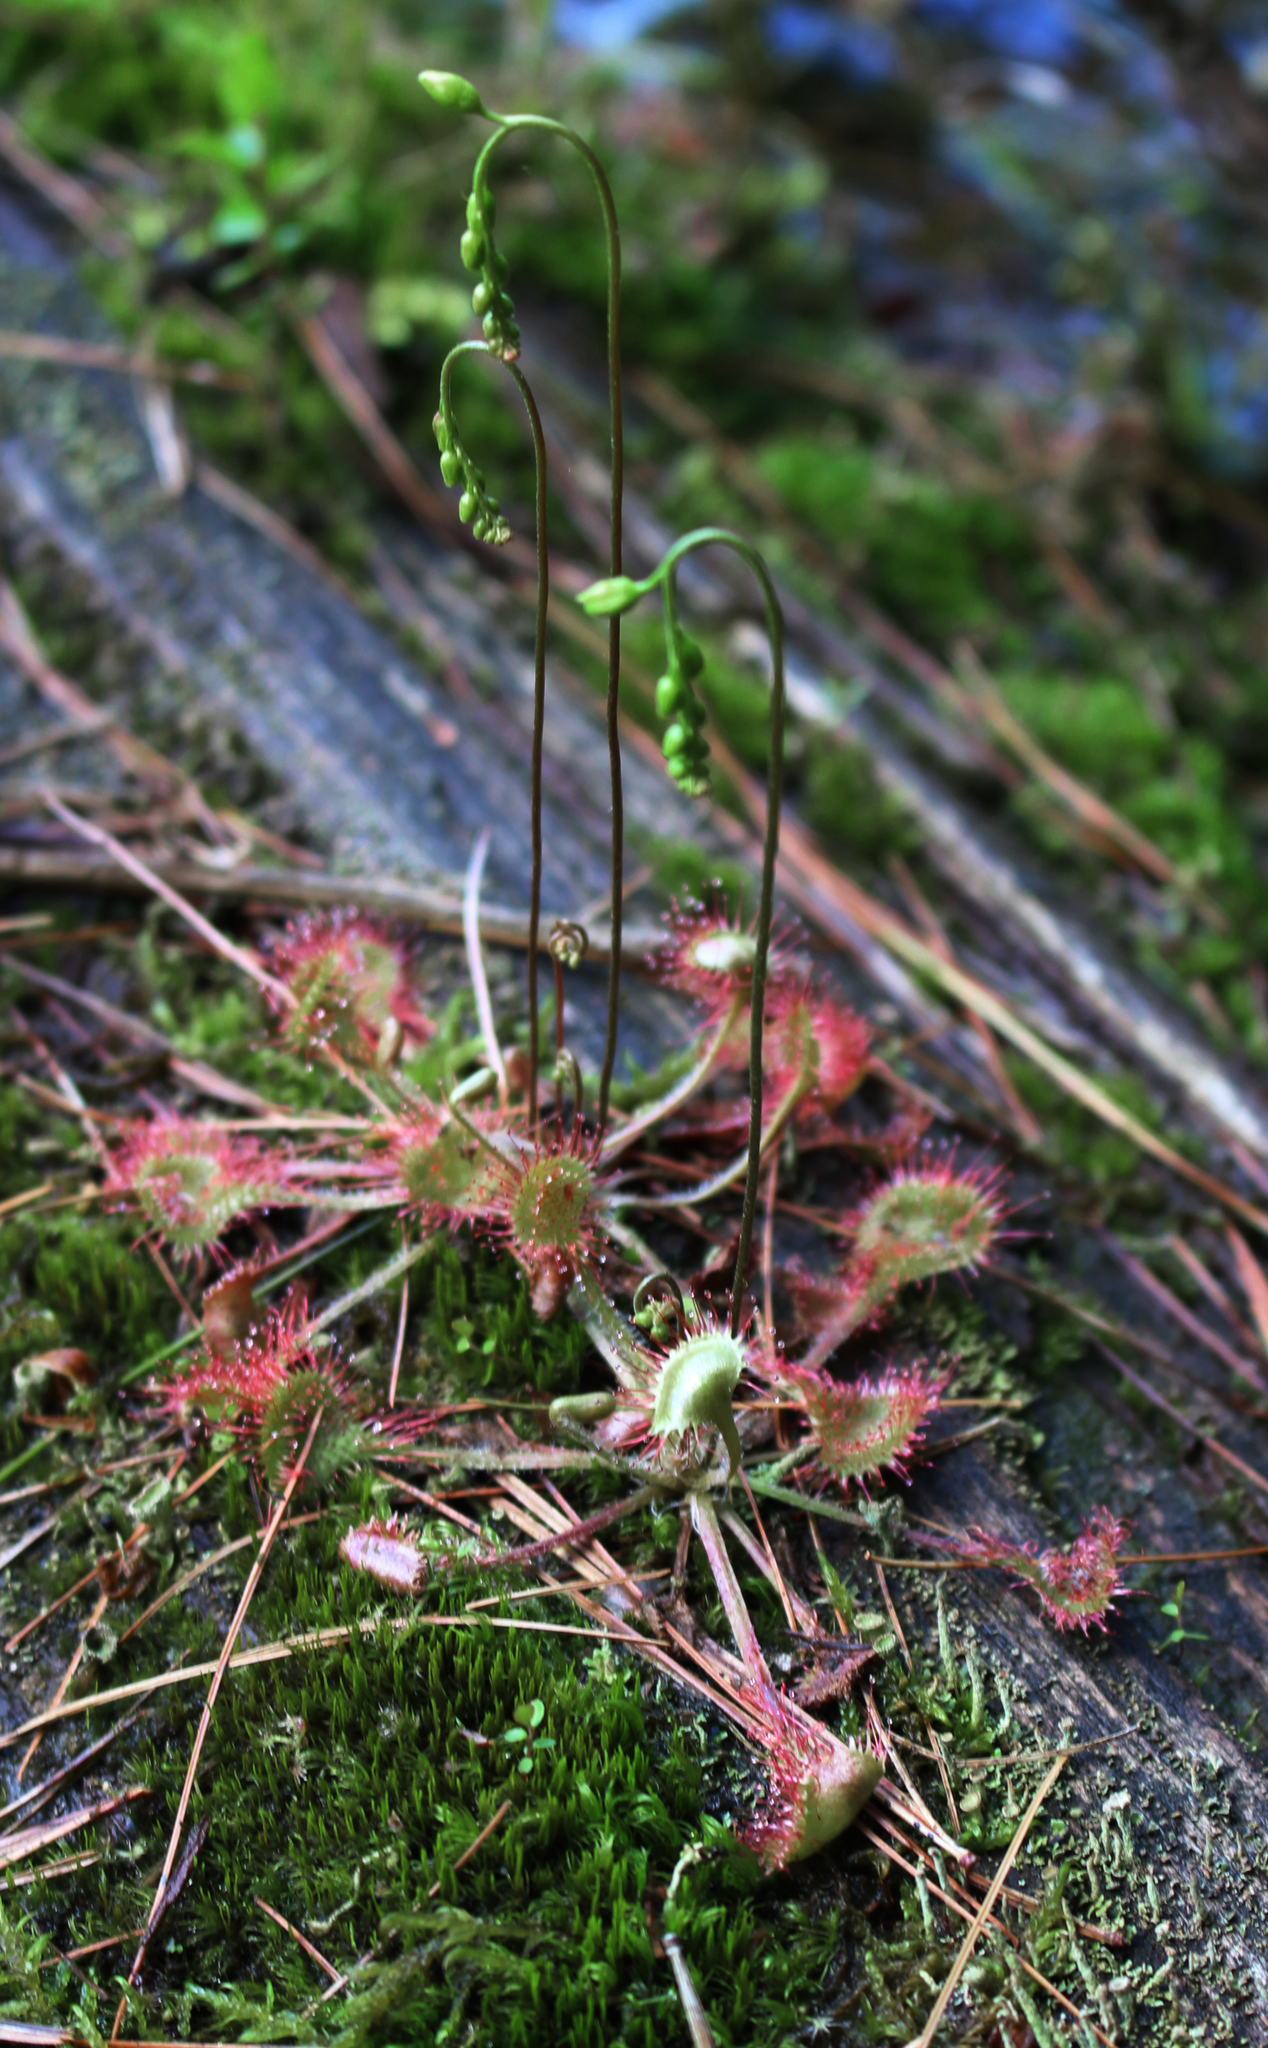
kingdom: Plantae
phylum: Tracheophyta
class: Magnoliopsida
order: Caryophyllales
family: Droseraceae
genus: Drosera
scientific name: Drosera rotundifolia
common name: Round-leaved sundew
